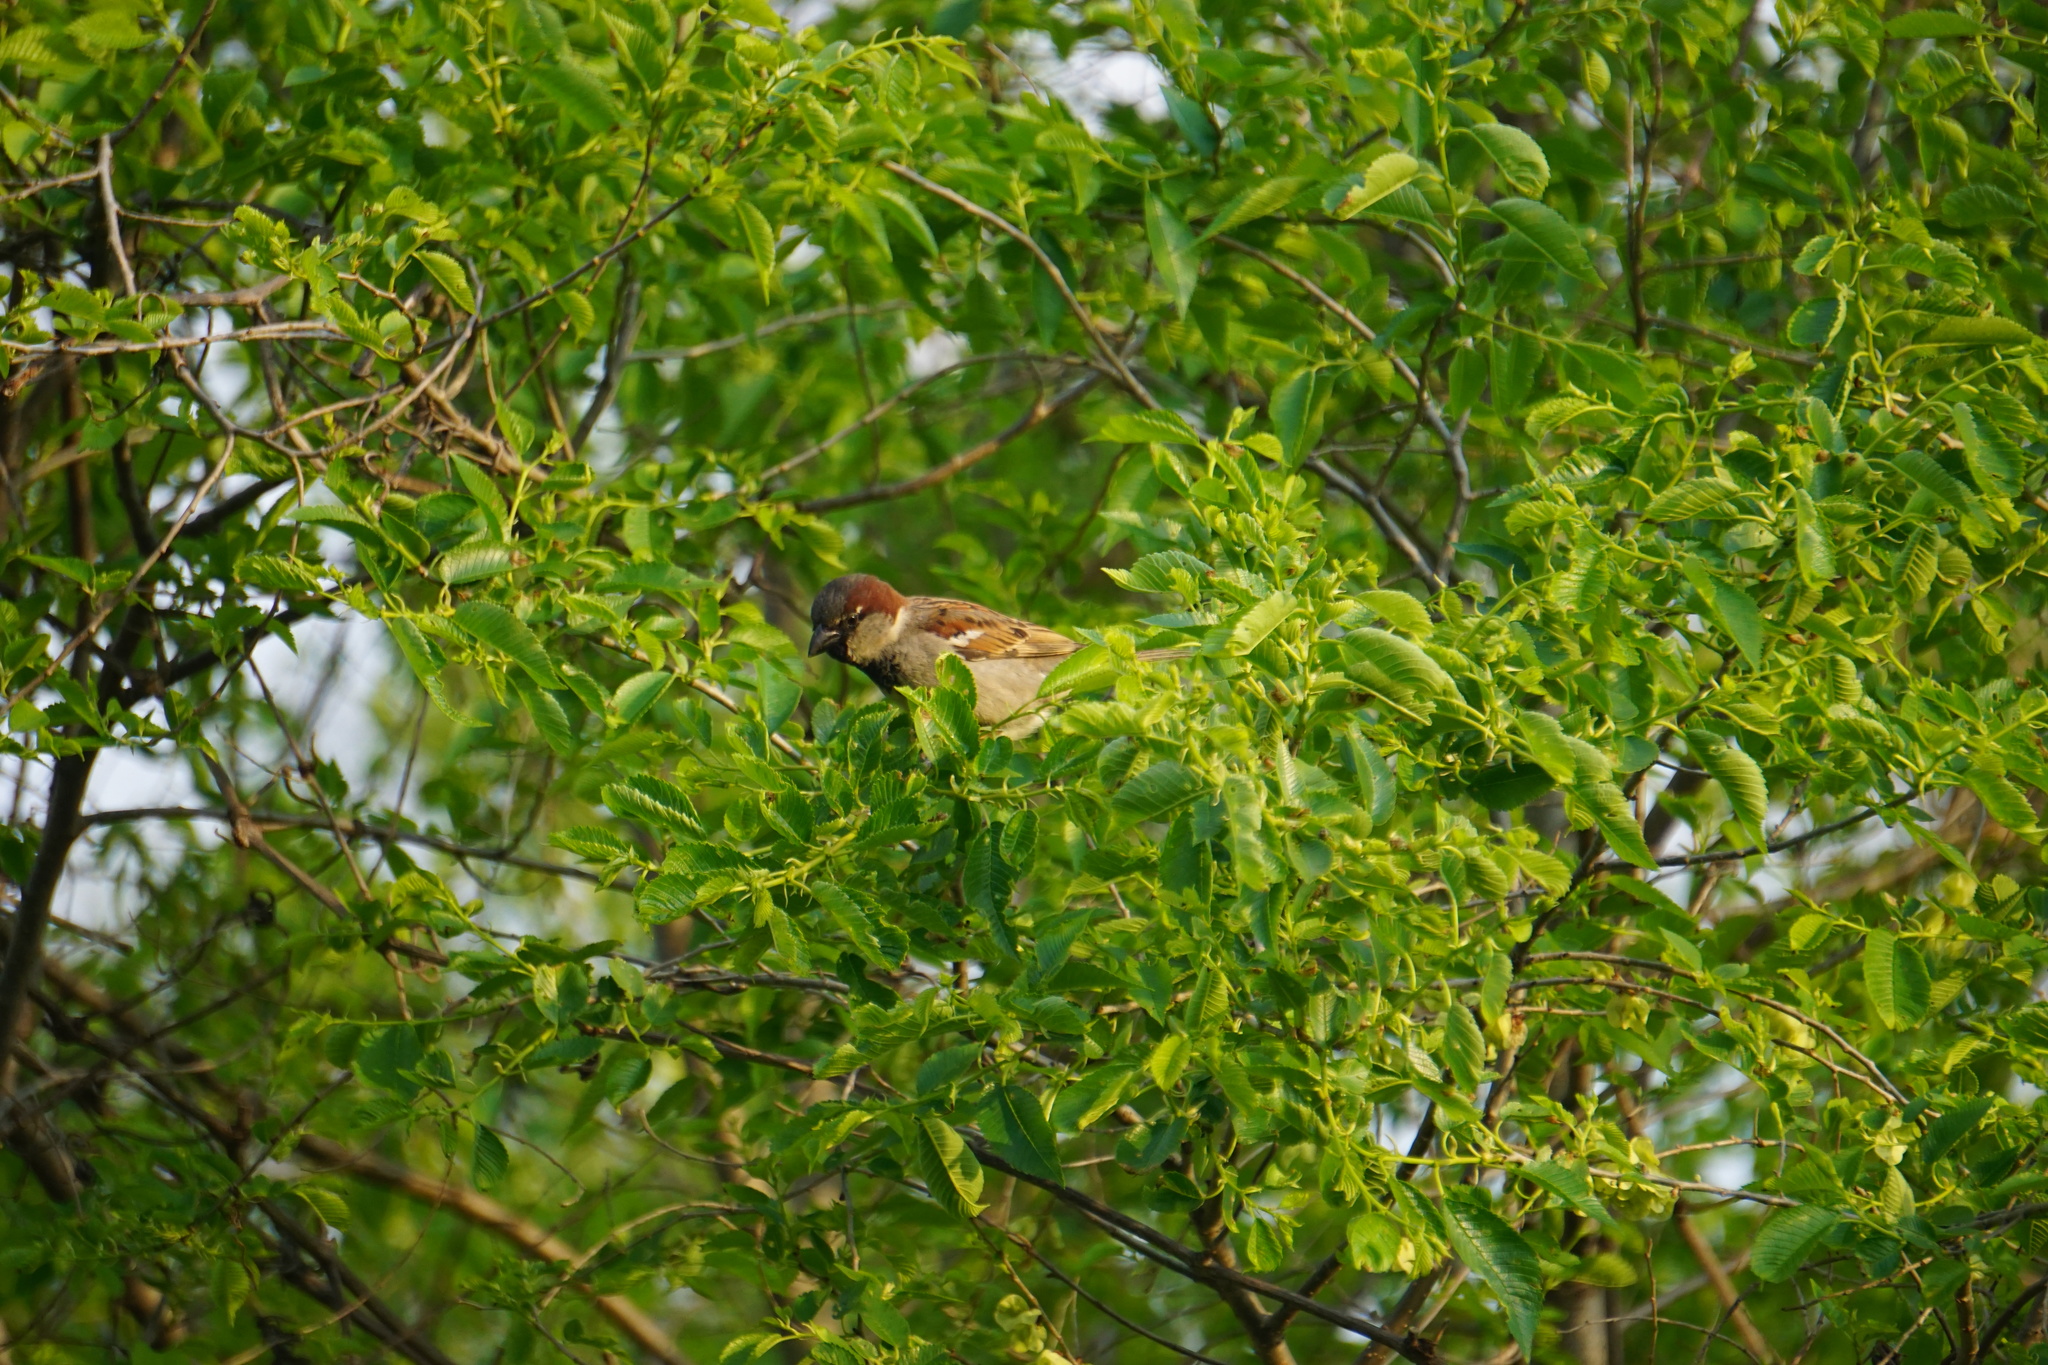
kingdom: Animalia
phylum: Chordata
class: Aves
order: Passeriformes
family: Passeridae
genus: Passer
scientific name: Passer domesticus
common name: House sparrow
